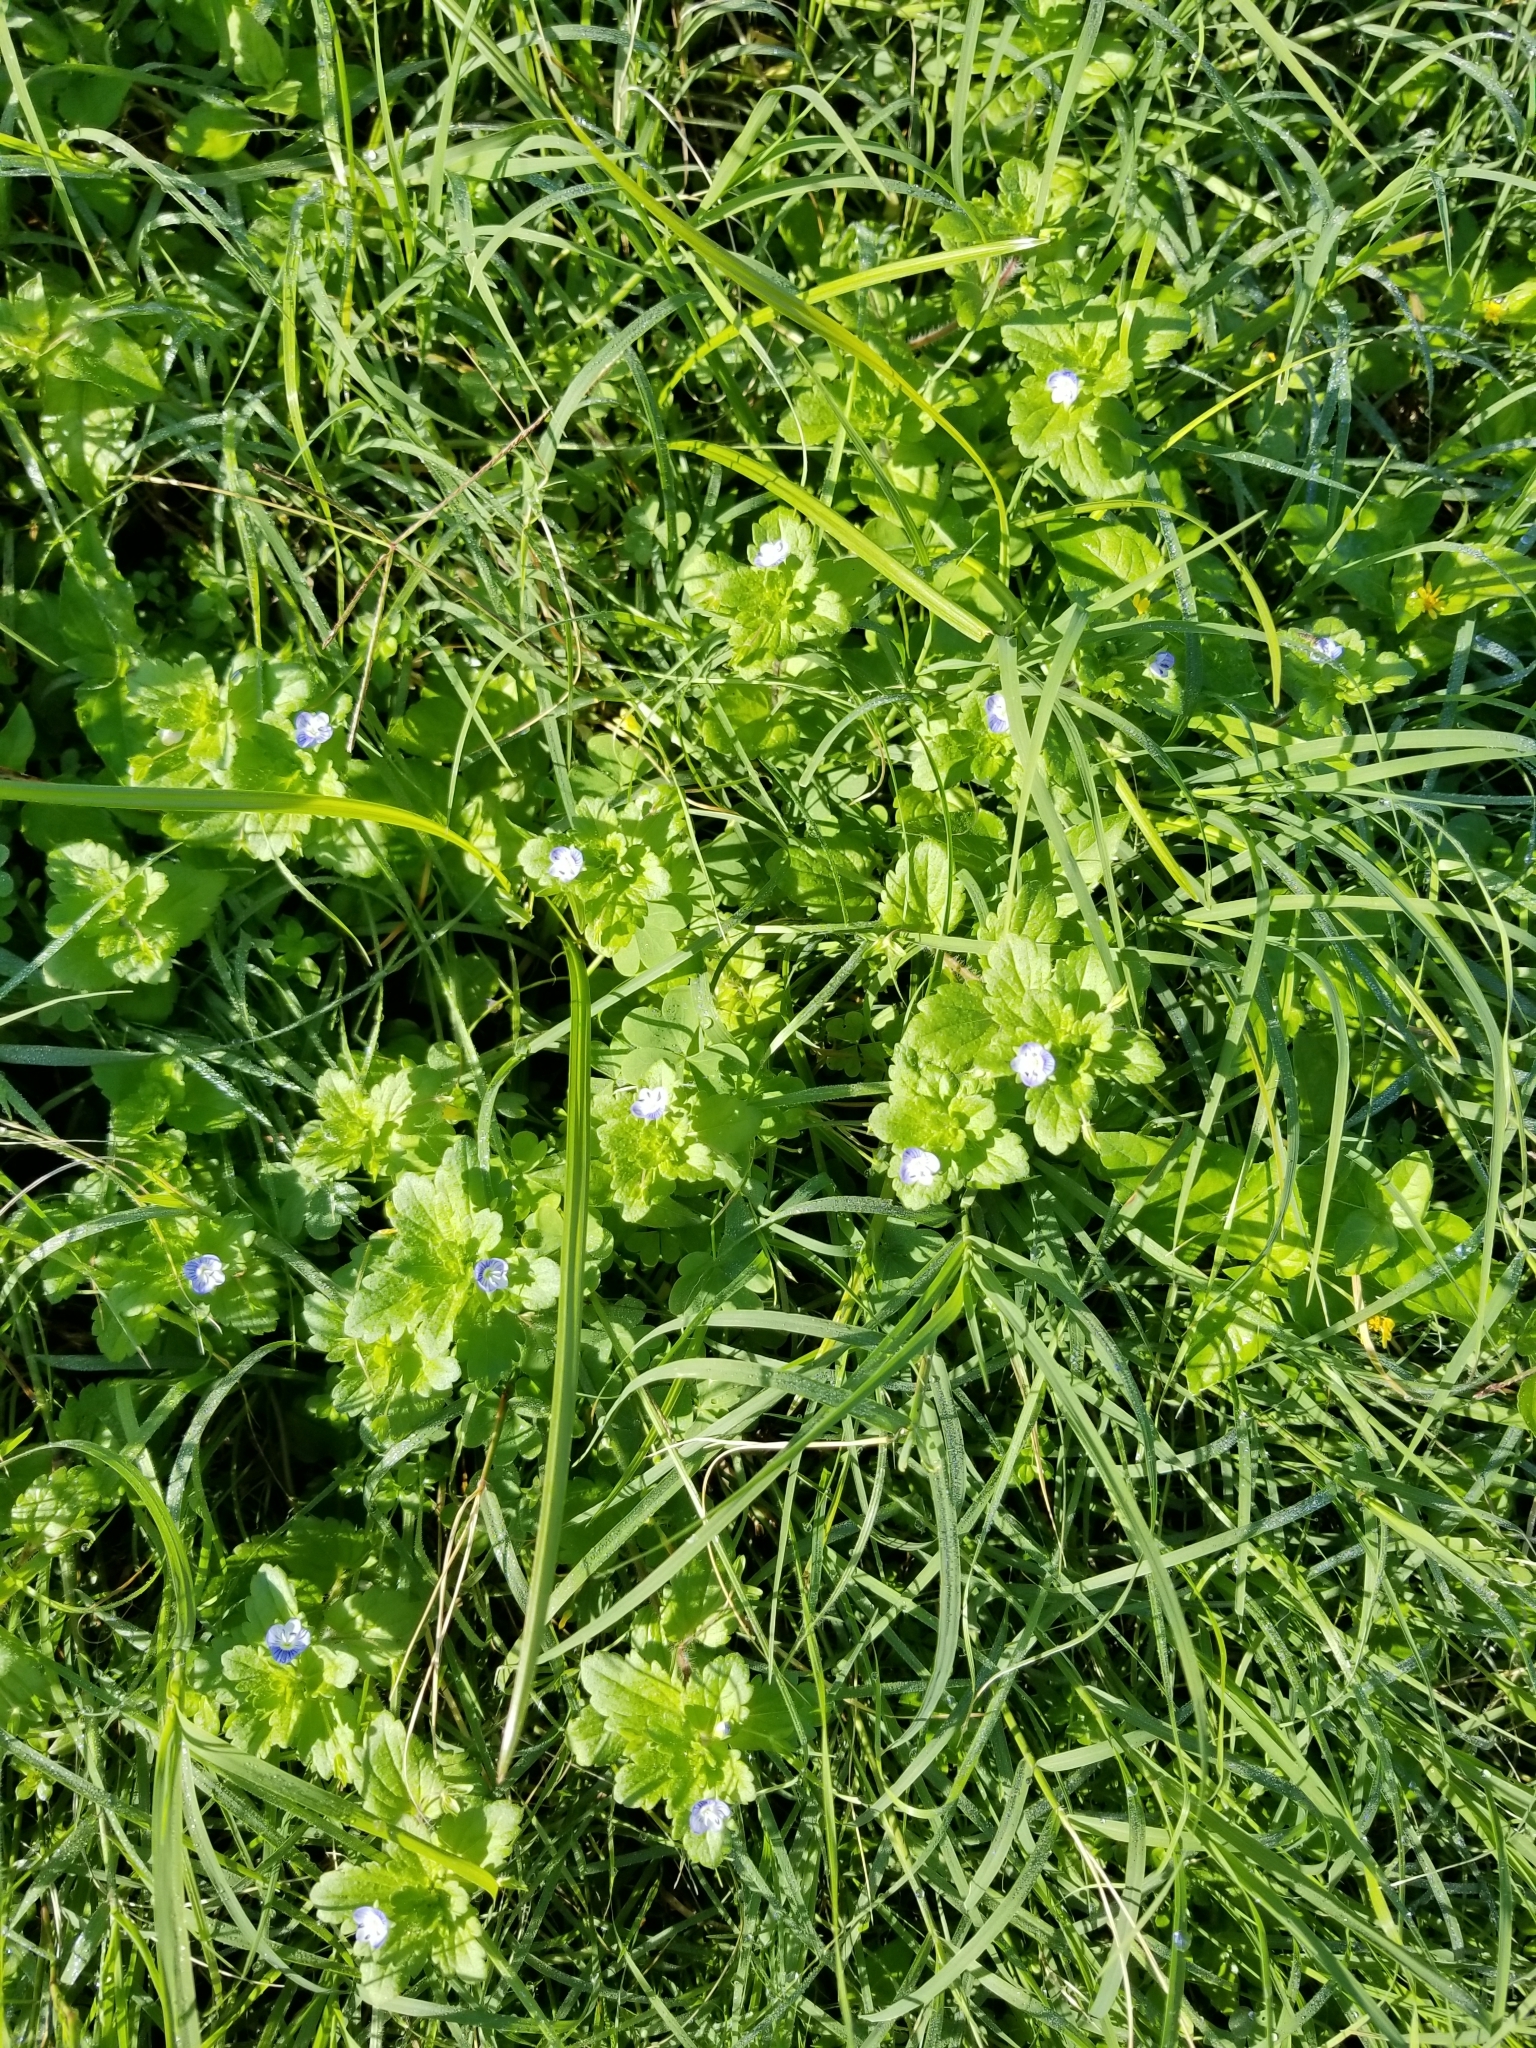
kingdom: Plantae
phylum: Tracheophyta
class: Magnoliopsida
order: Lamiales
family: Plantaginaceae
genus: Veronica
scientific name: Veronica persica
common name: Common field-speedwell
